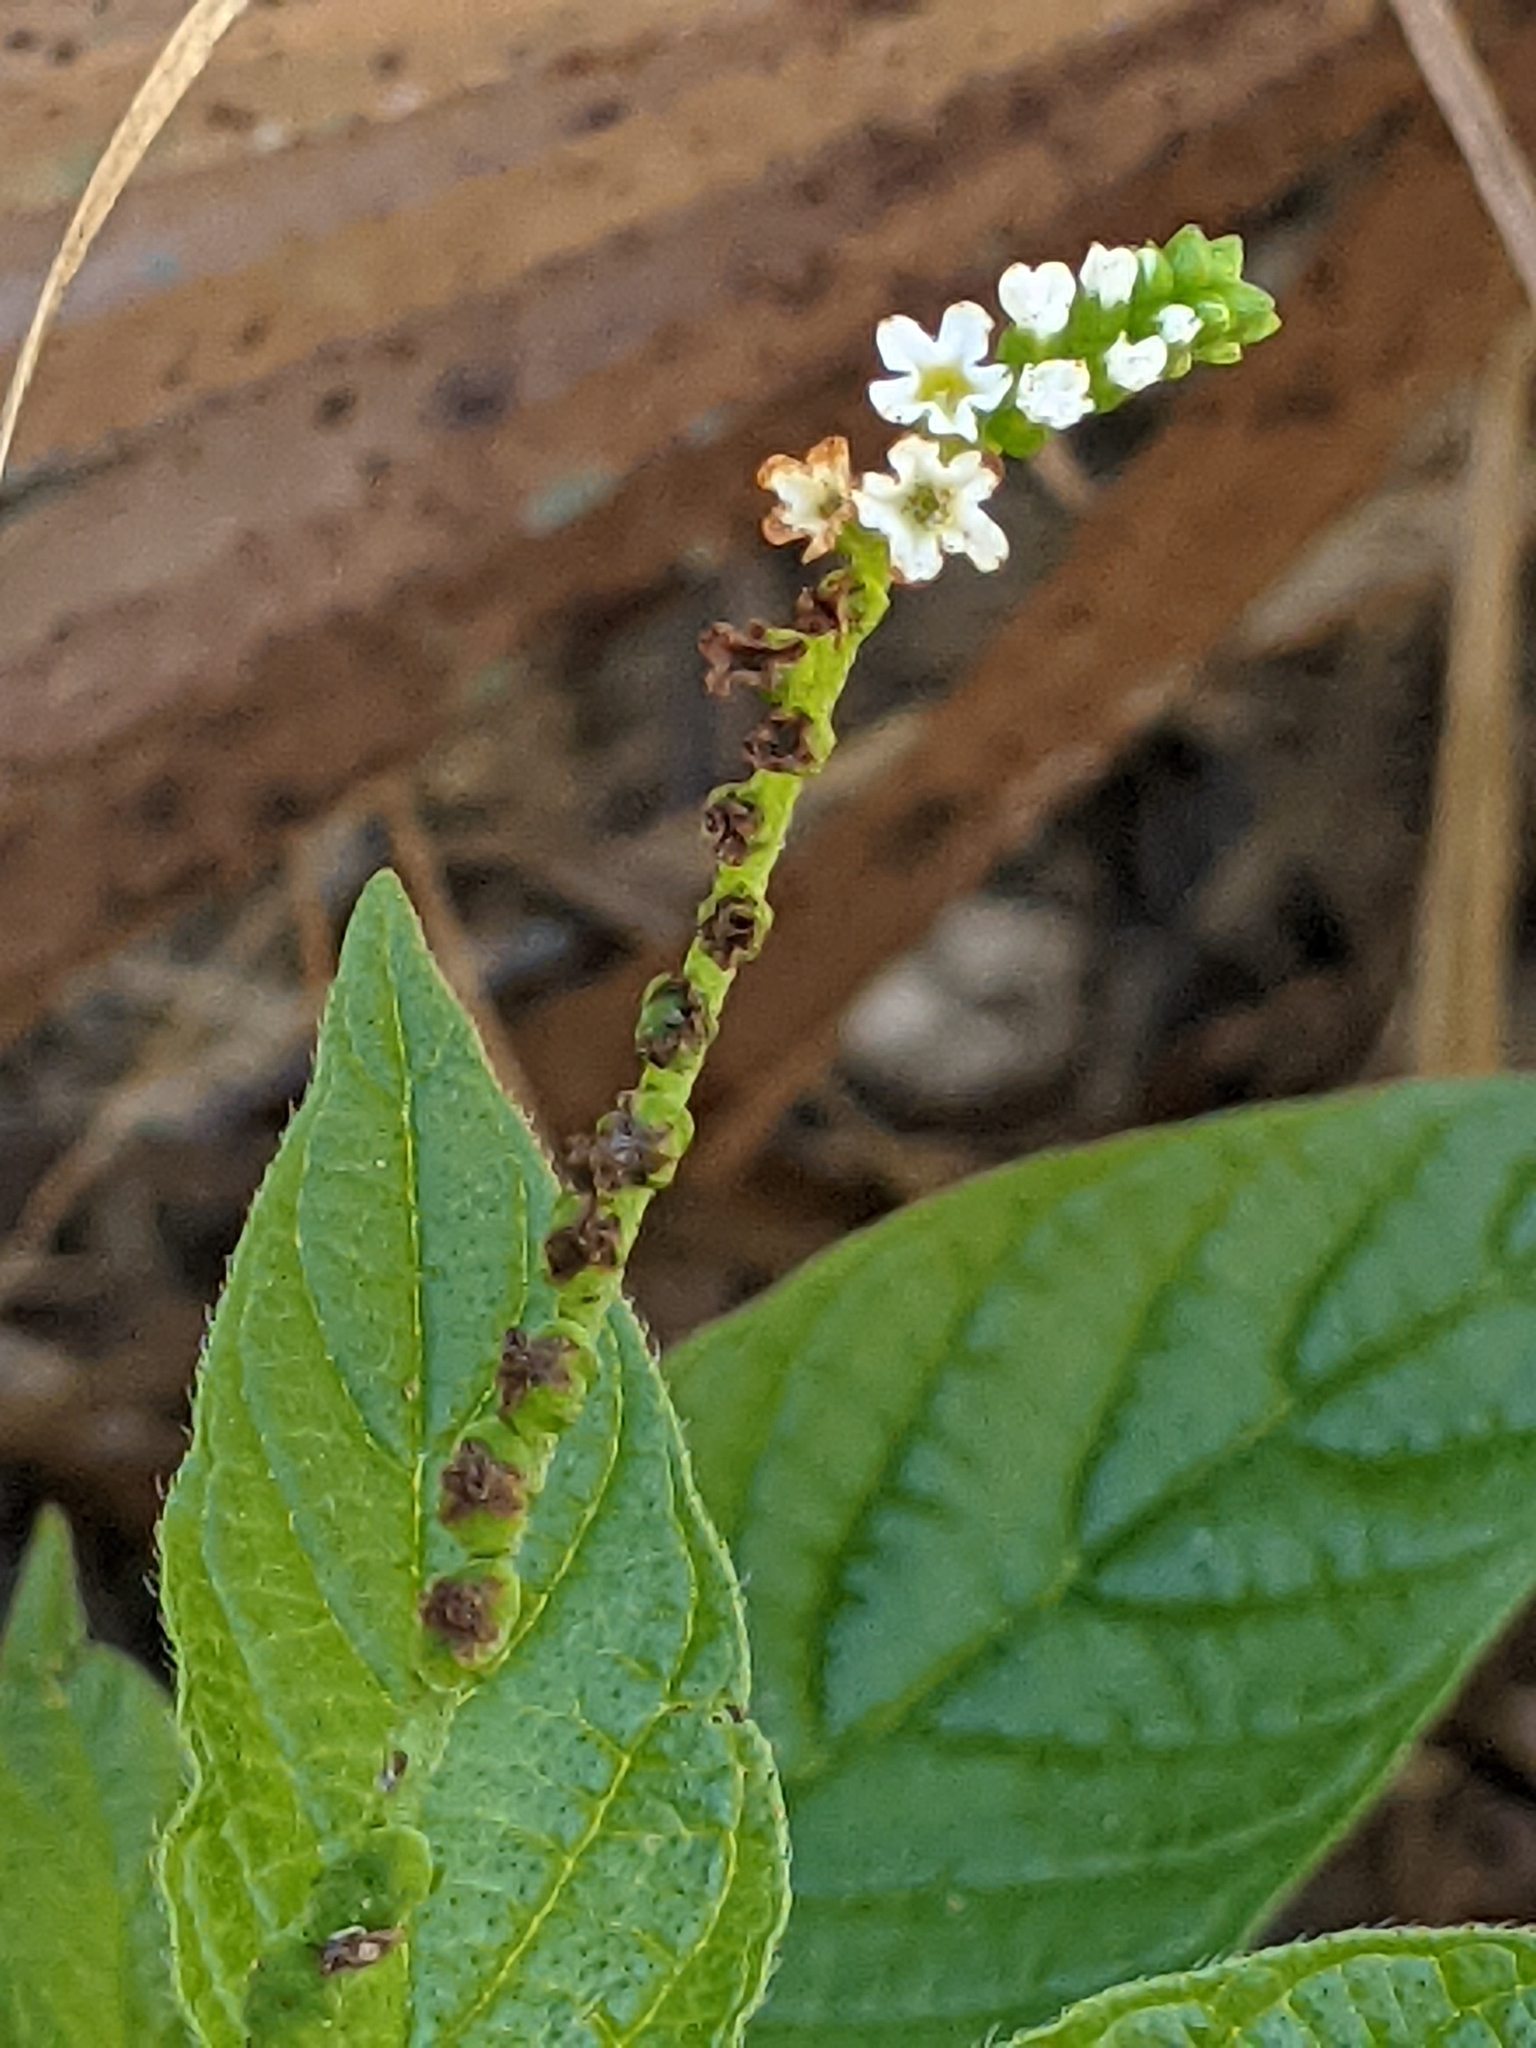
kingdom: Plantae
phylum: Tracheophyta
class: Magnoliopsida
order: Boraginales
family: Heliotropiaceae
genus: Heliotropium
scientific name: Heliotropium angiospermum
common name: Eye bright
